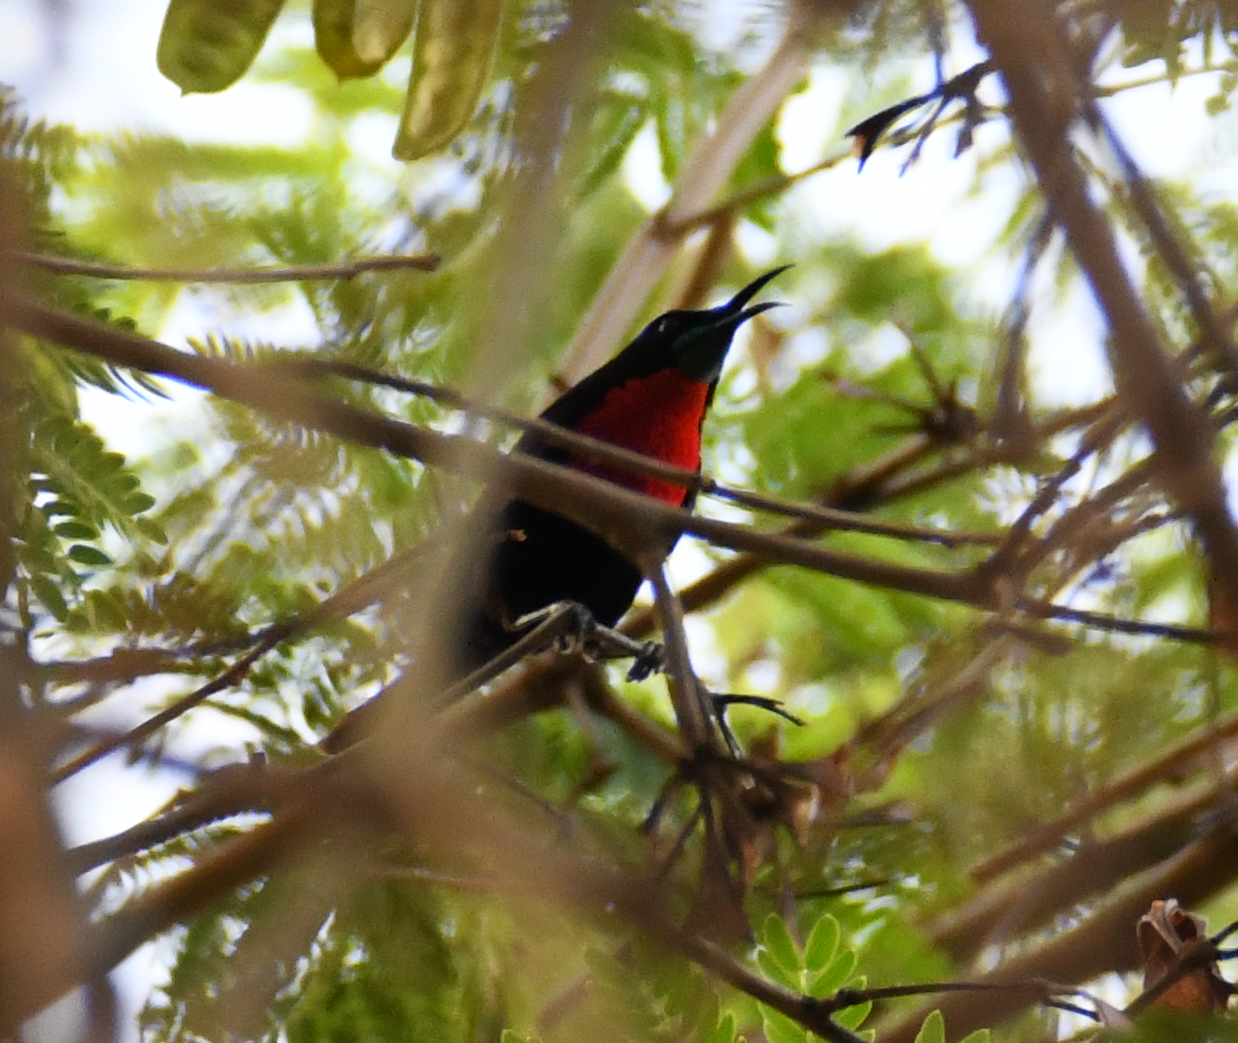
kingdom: Animalia
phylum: Chordata
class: Aves
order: Passeriformes
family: Nectariniidae
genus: Chalcomitra
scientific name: Chalcomitra senegalensis
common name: Scarlet-chested sunbird
